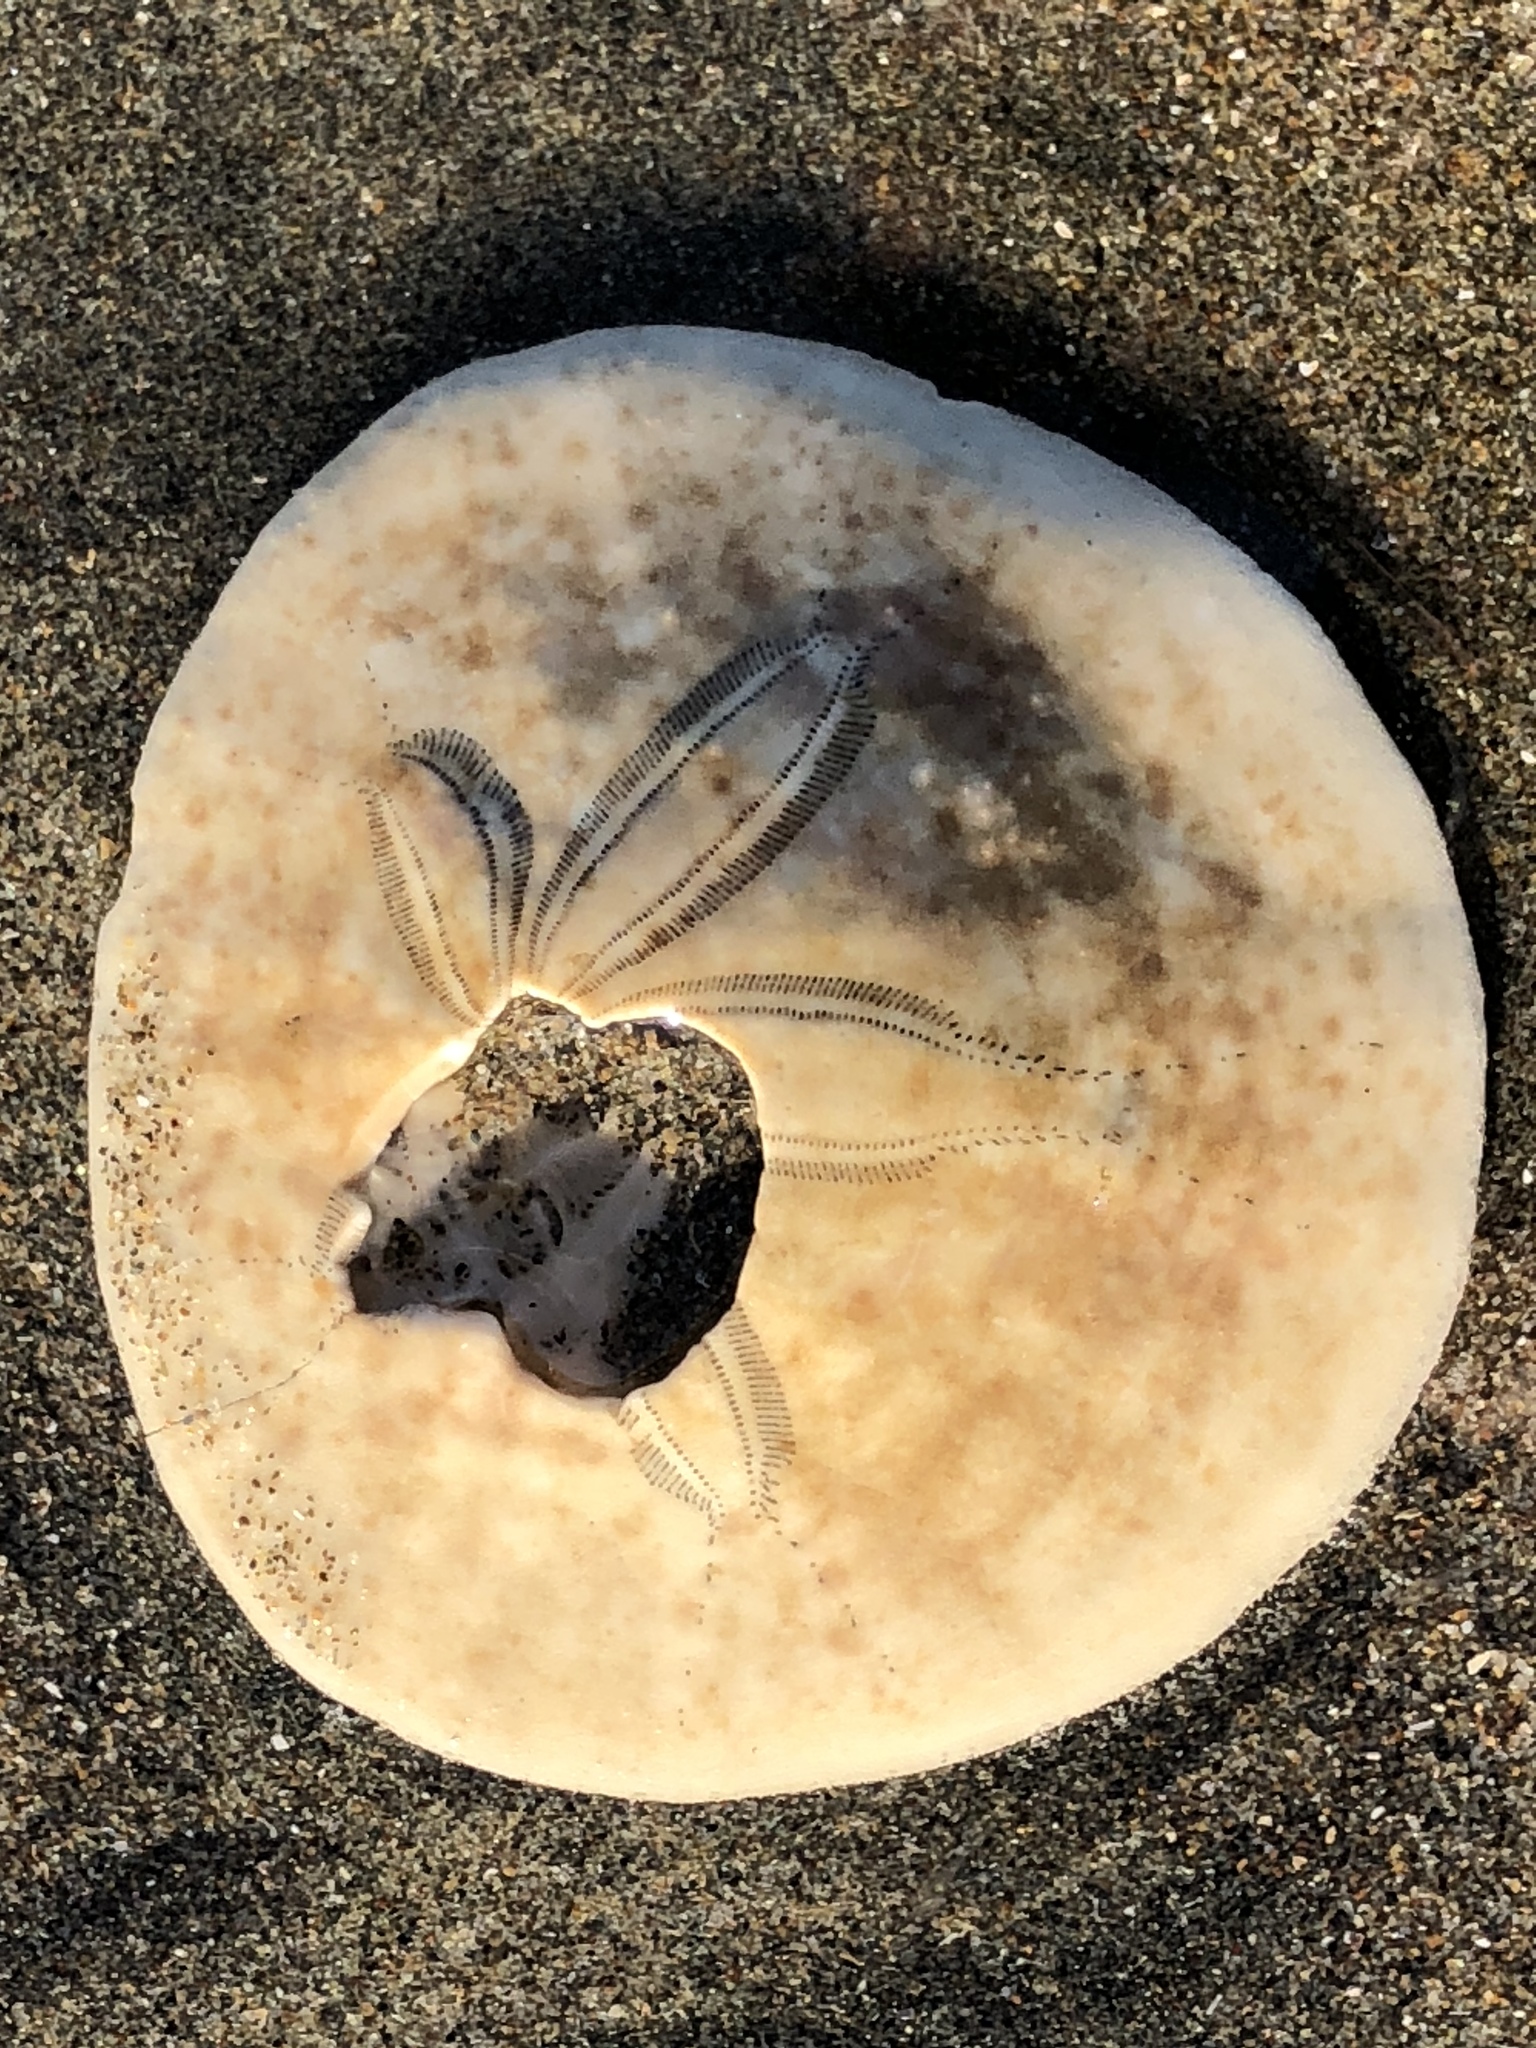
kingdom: Animalia
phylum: Echinodermata
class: Echinoidea
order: Echinolampadacea
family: Dendrasteridae
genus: Dendraster
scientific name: Dendraster excentricus
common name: Eccentric sand dollar sea urchin
